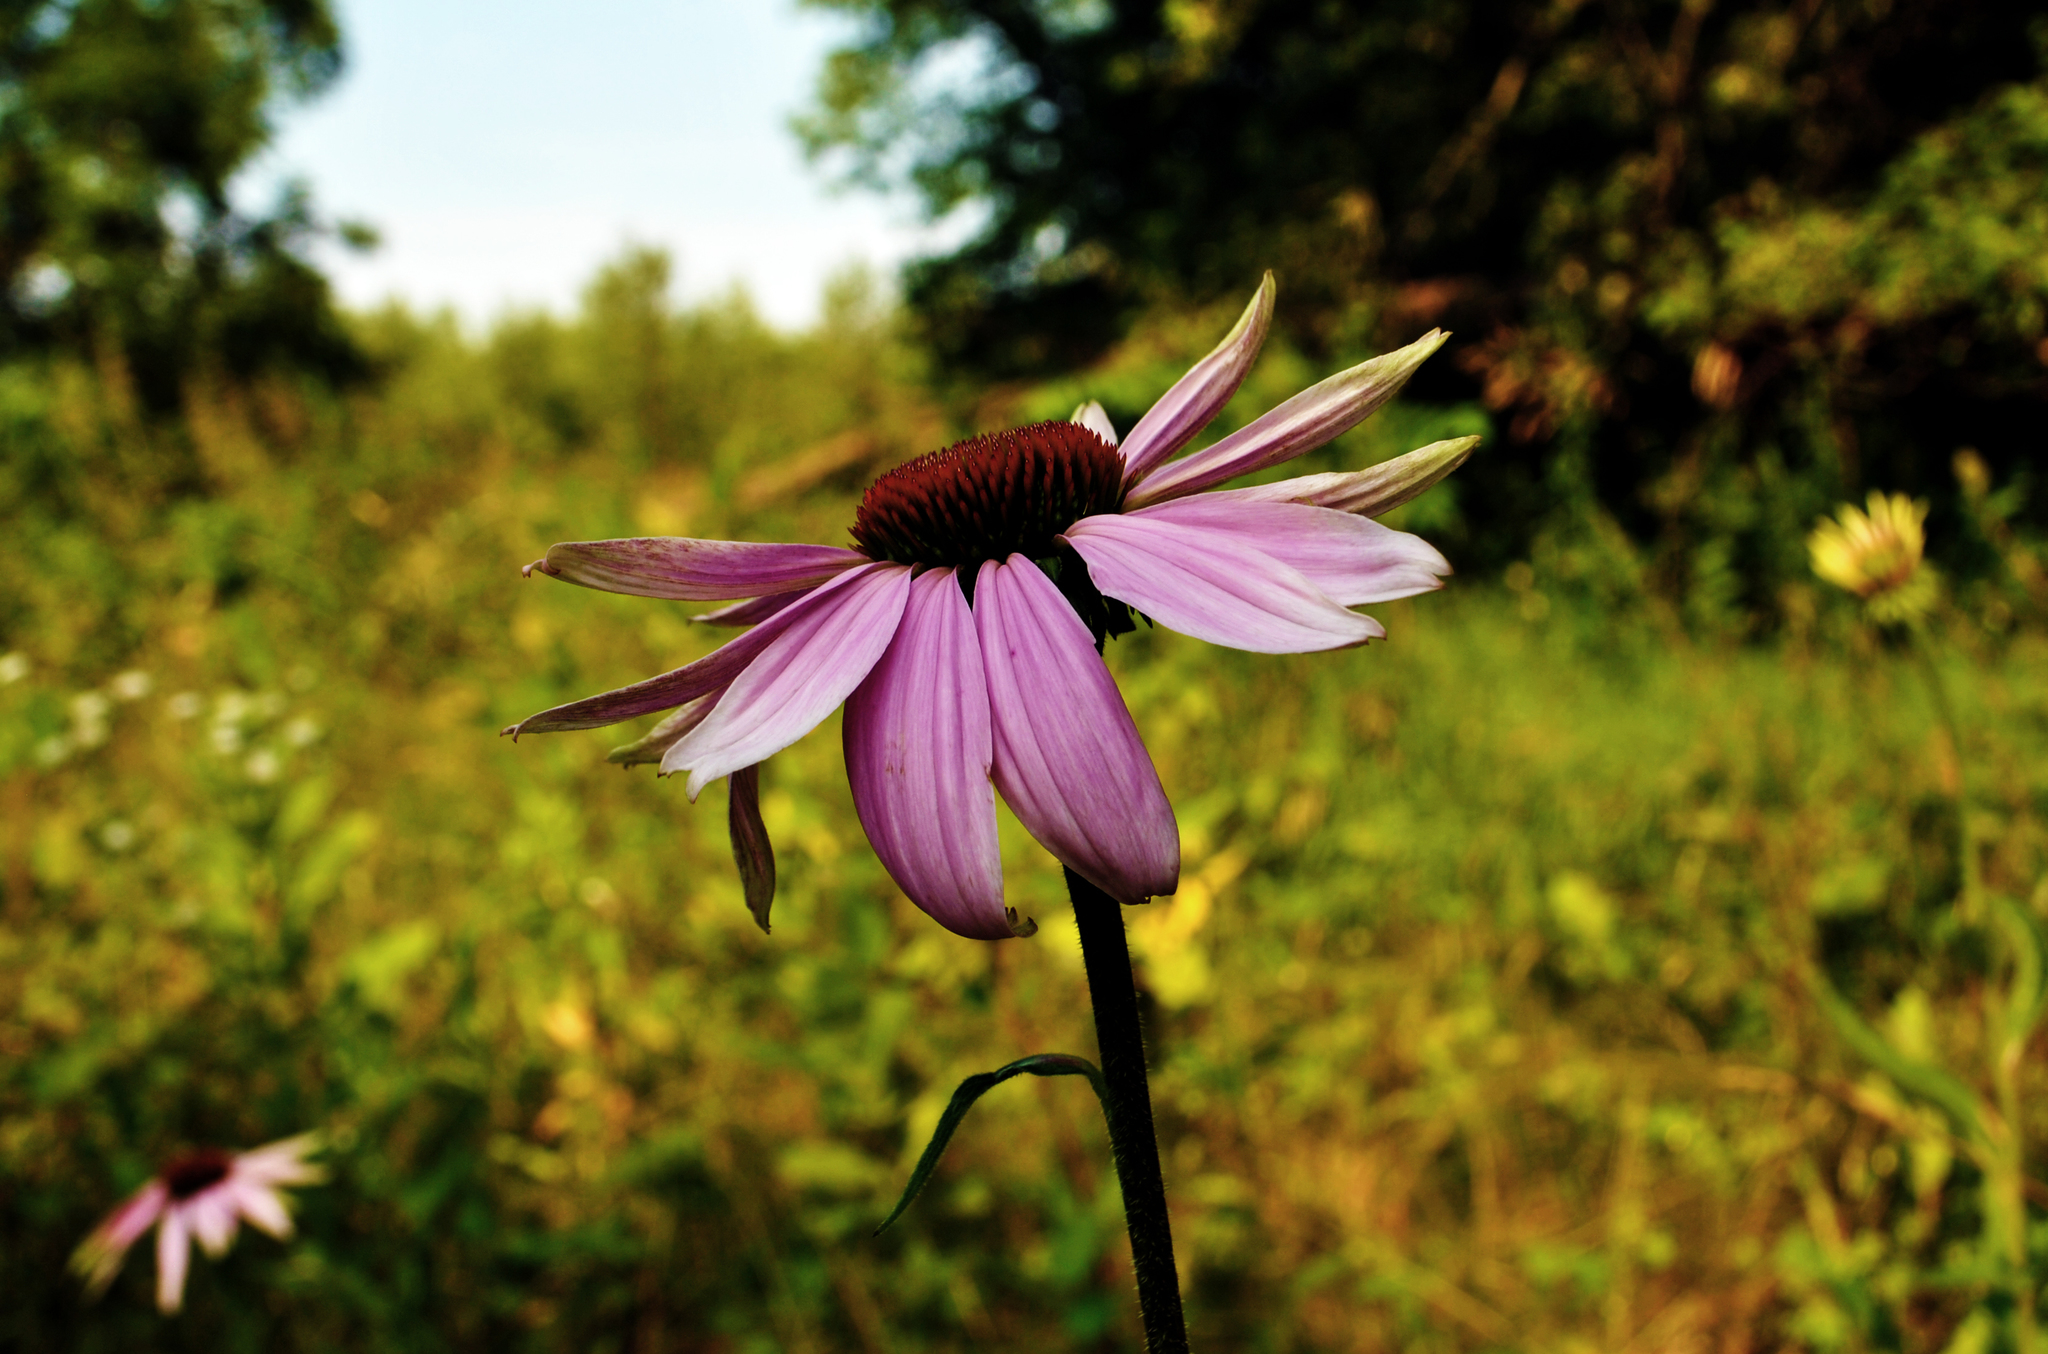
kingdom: Plantae
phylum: Tracheophyta
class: Magnoliopsida
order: Asterales
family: Asteraceae
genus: Echinacea
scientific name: Echinacea purpurea
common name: Broad-leaved purple coneflower
